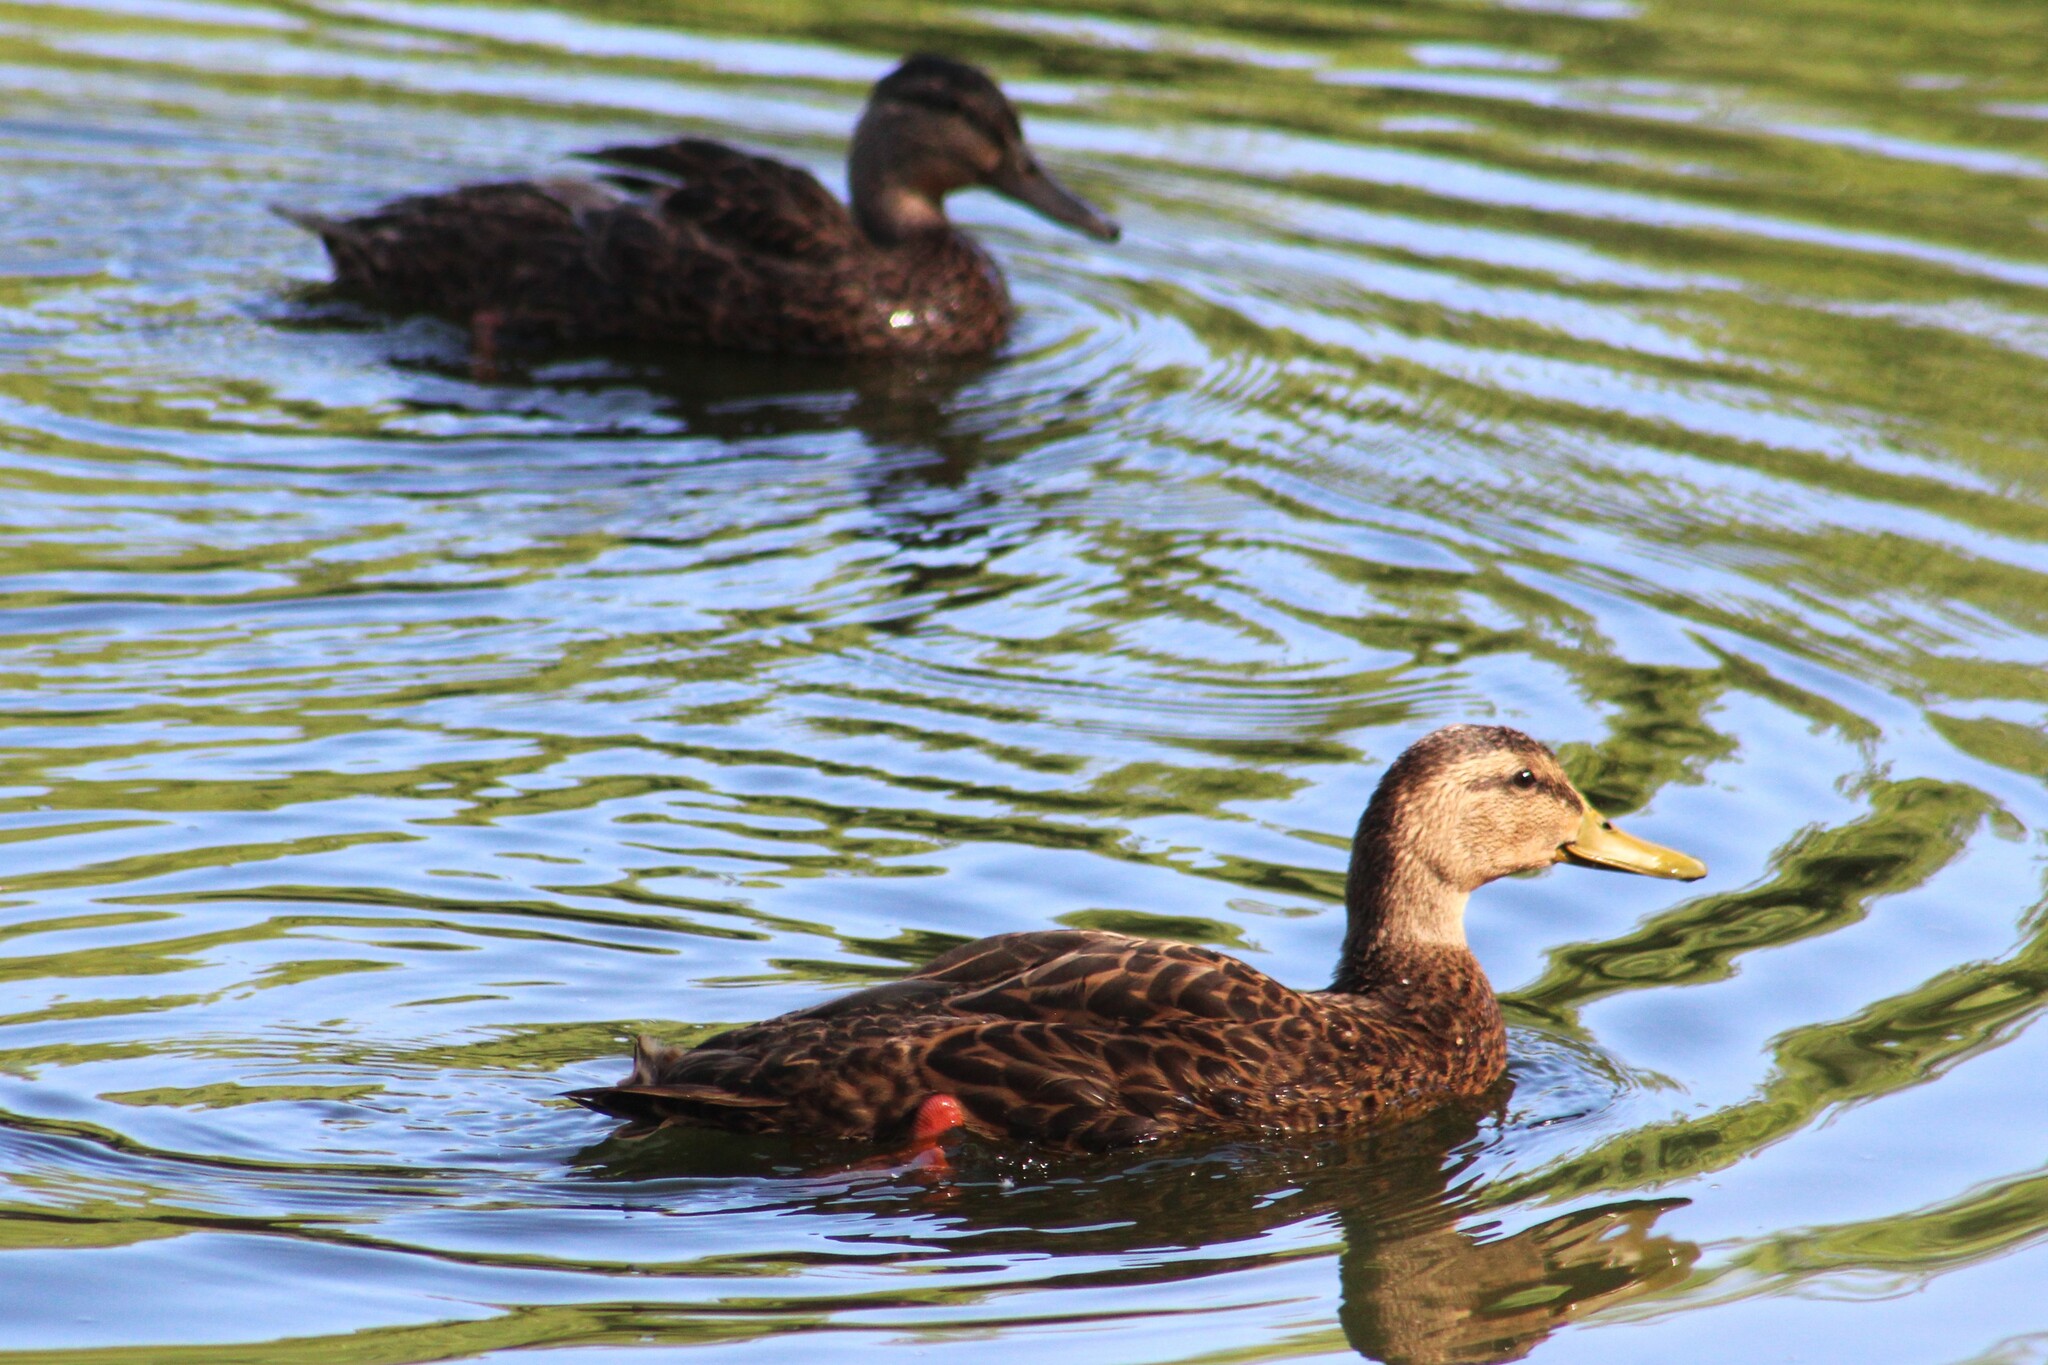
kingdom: Animalia
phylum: Chordata
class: Aves
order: Anseriformes
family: Anatidae
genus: Anas
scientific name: Anas diazi
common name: Mexican duck
